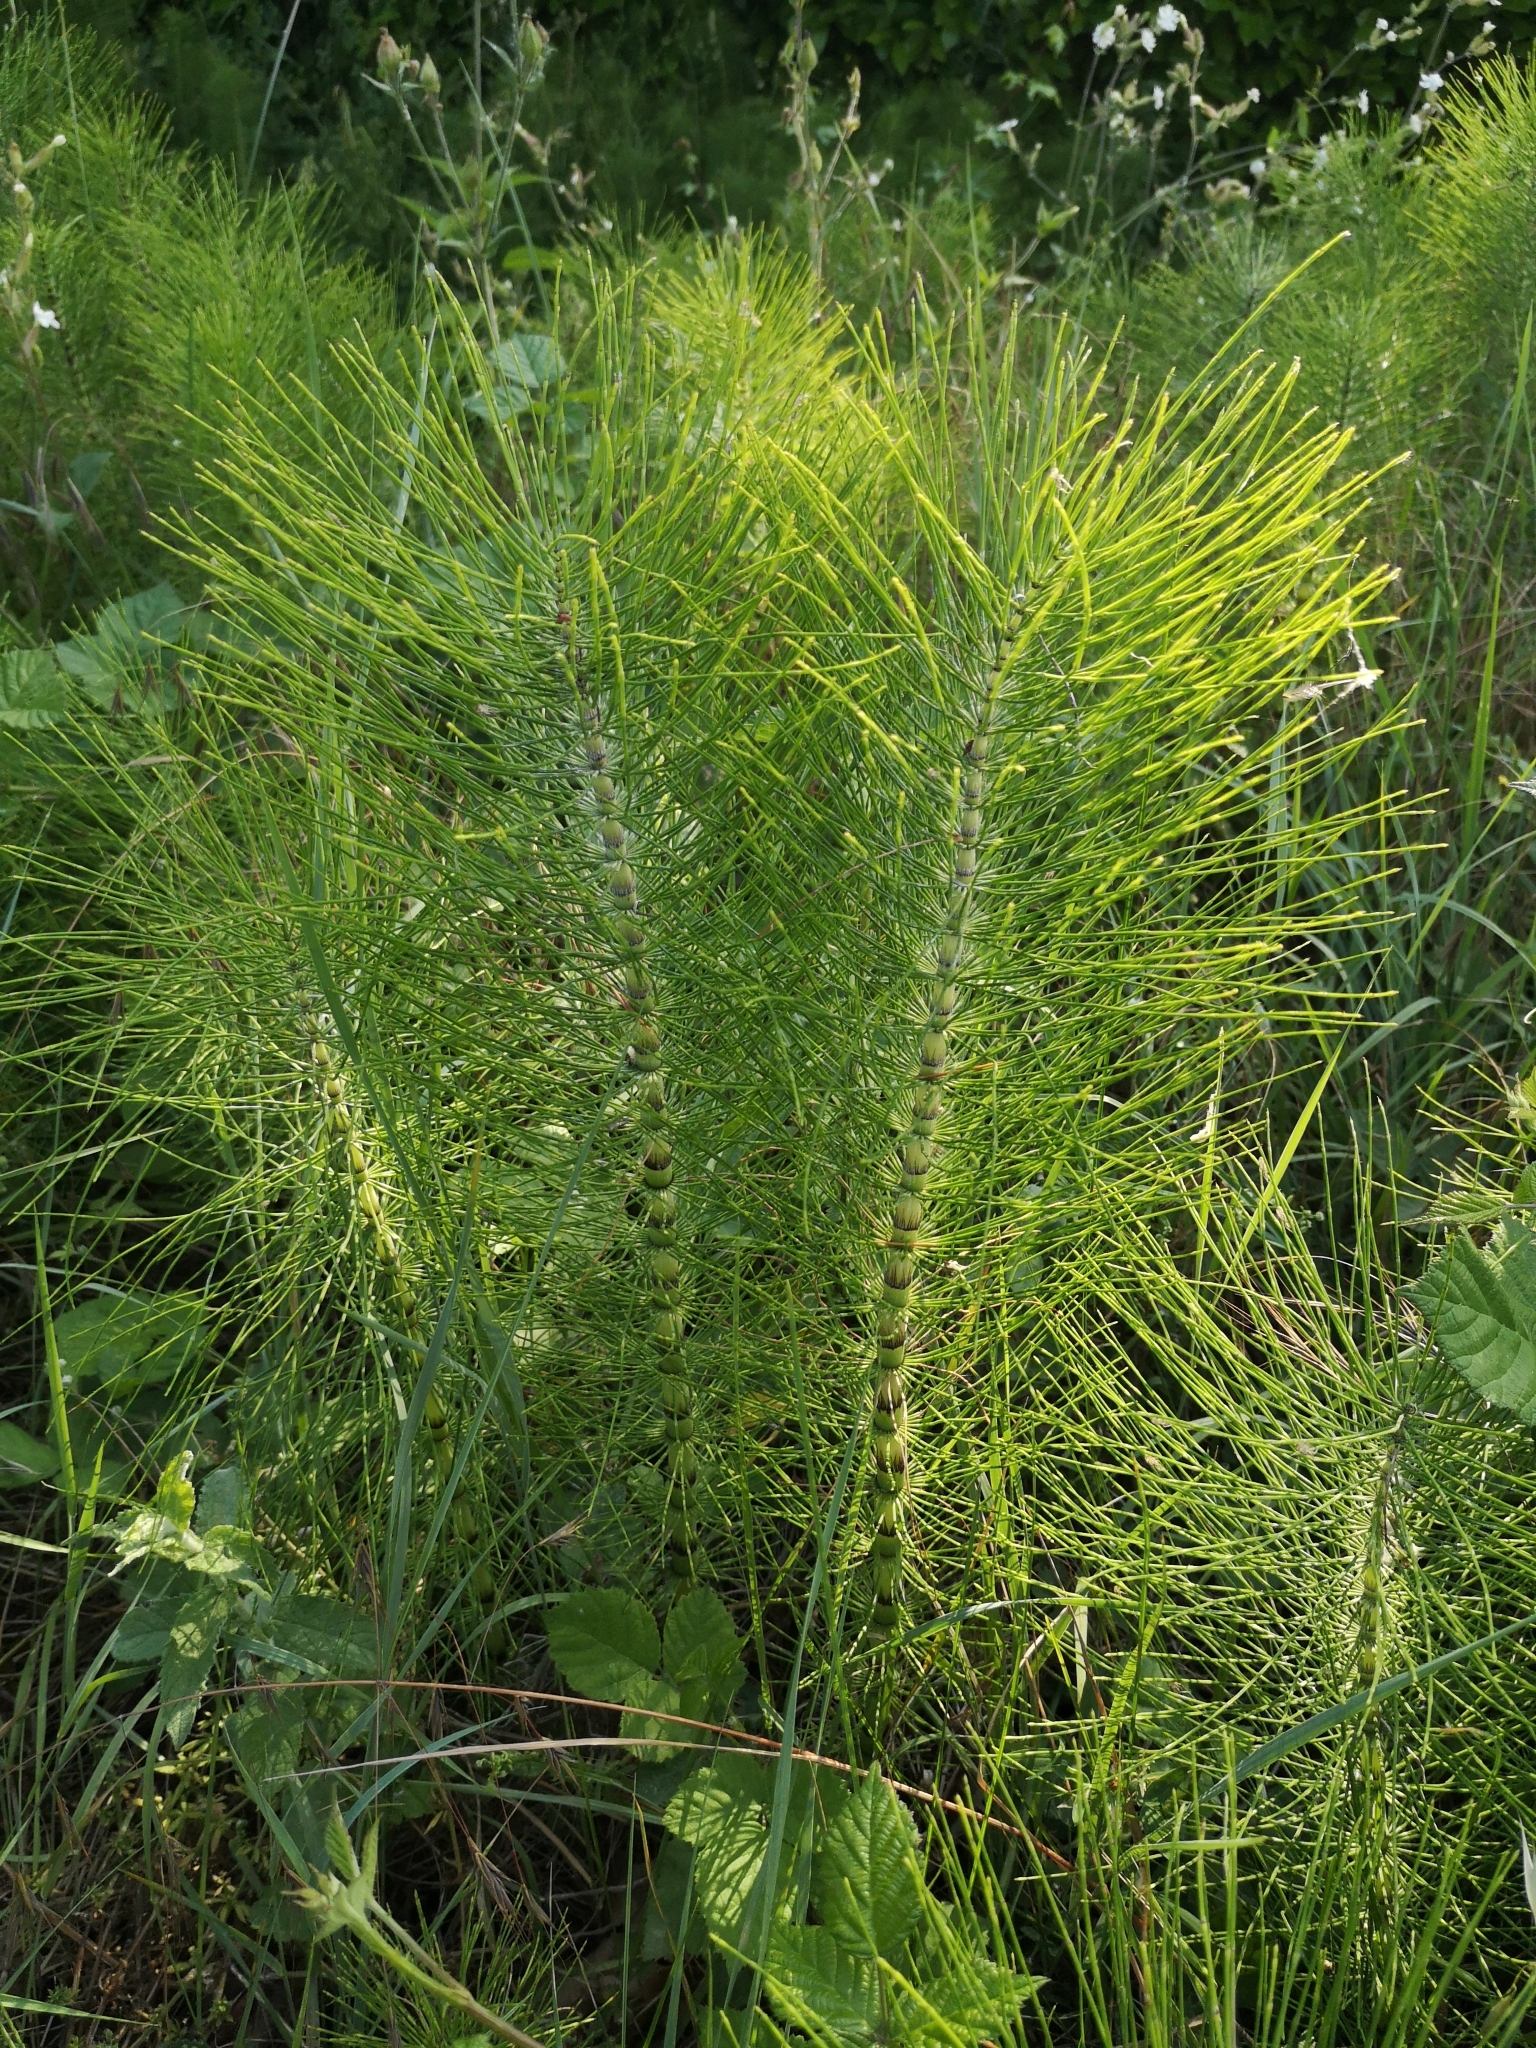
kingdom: Plantae
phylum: Tracheophyta
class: Polypodiopsida
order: Equisetales
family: Equisetaceae
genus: Equisetum
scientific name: Equisetum telmateia
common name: Great horsetail
